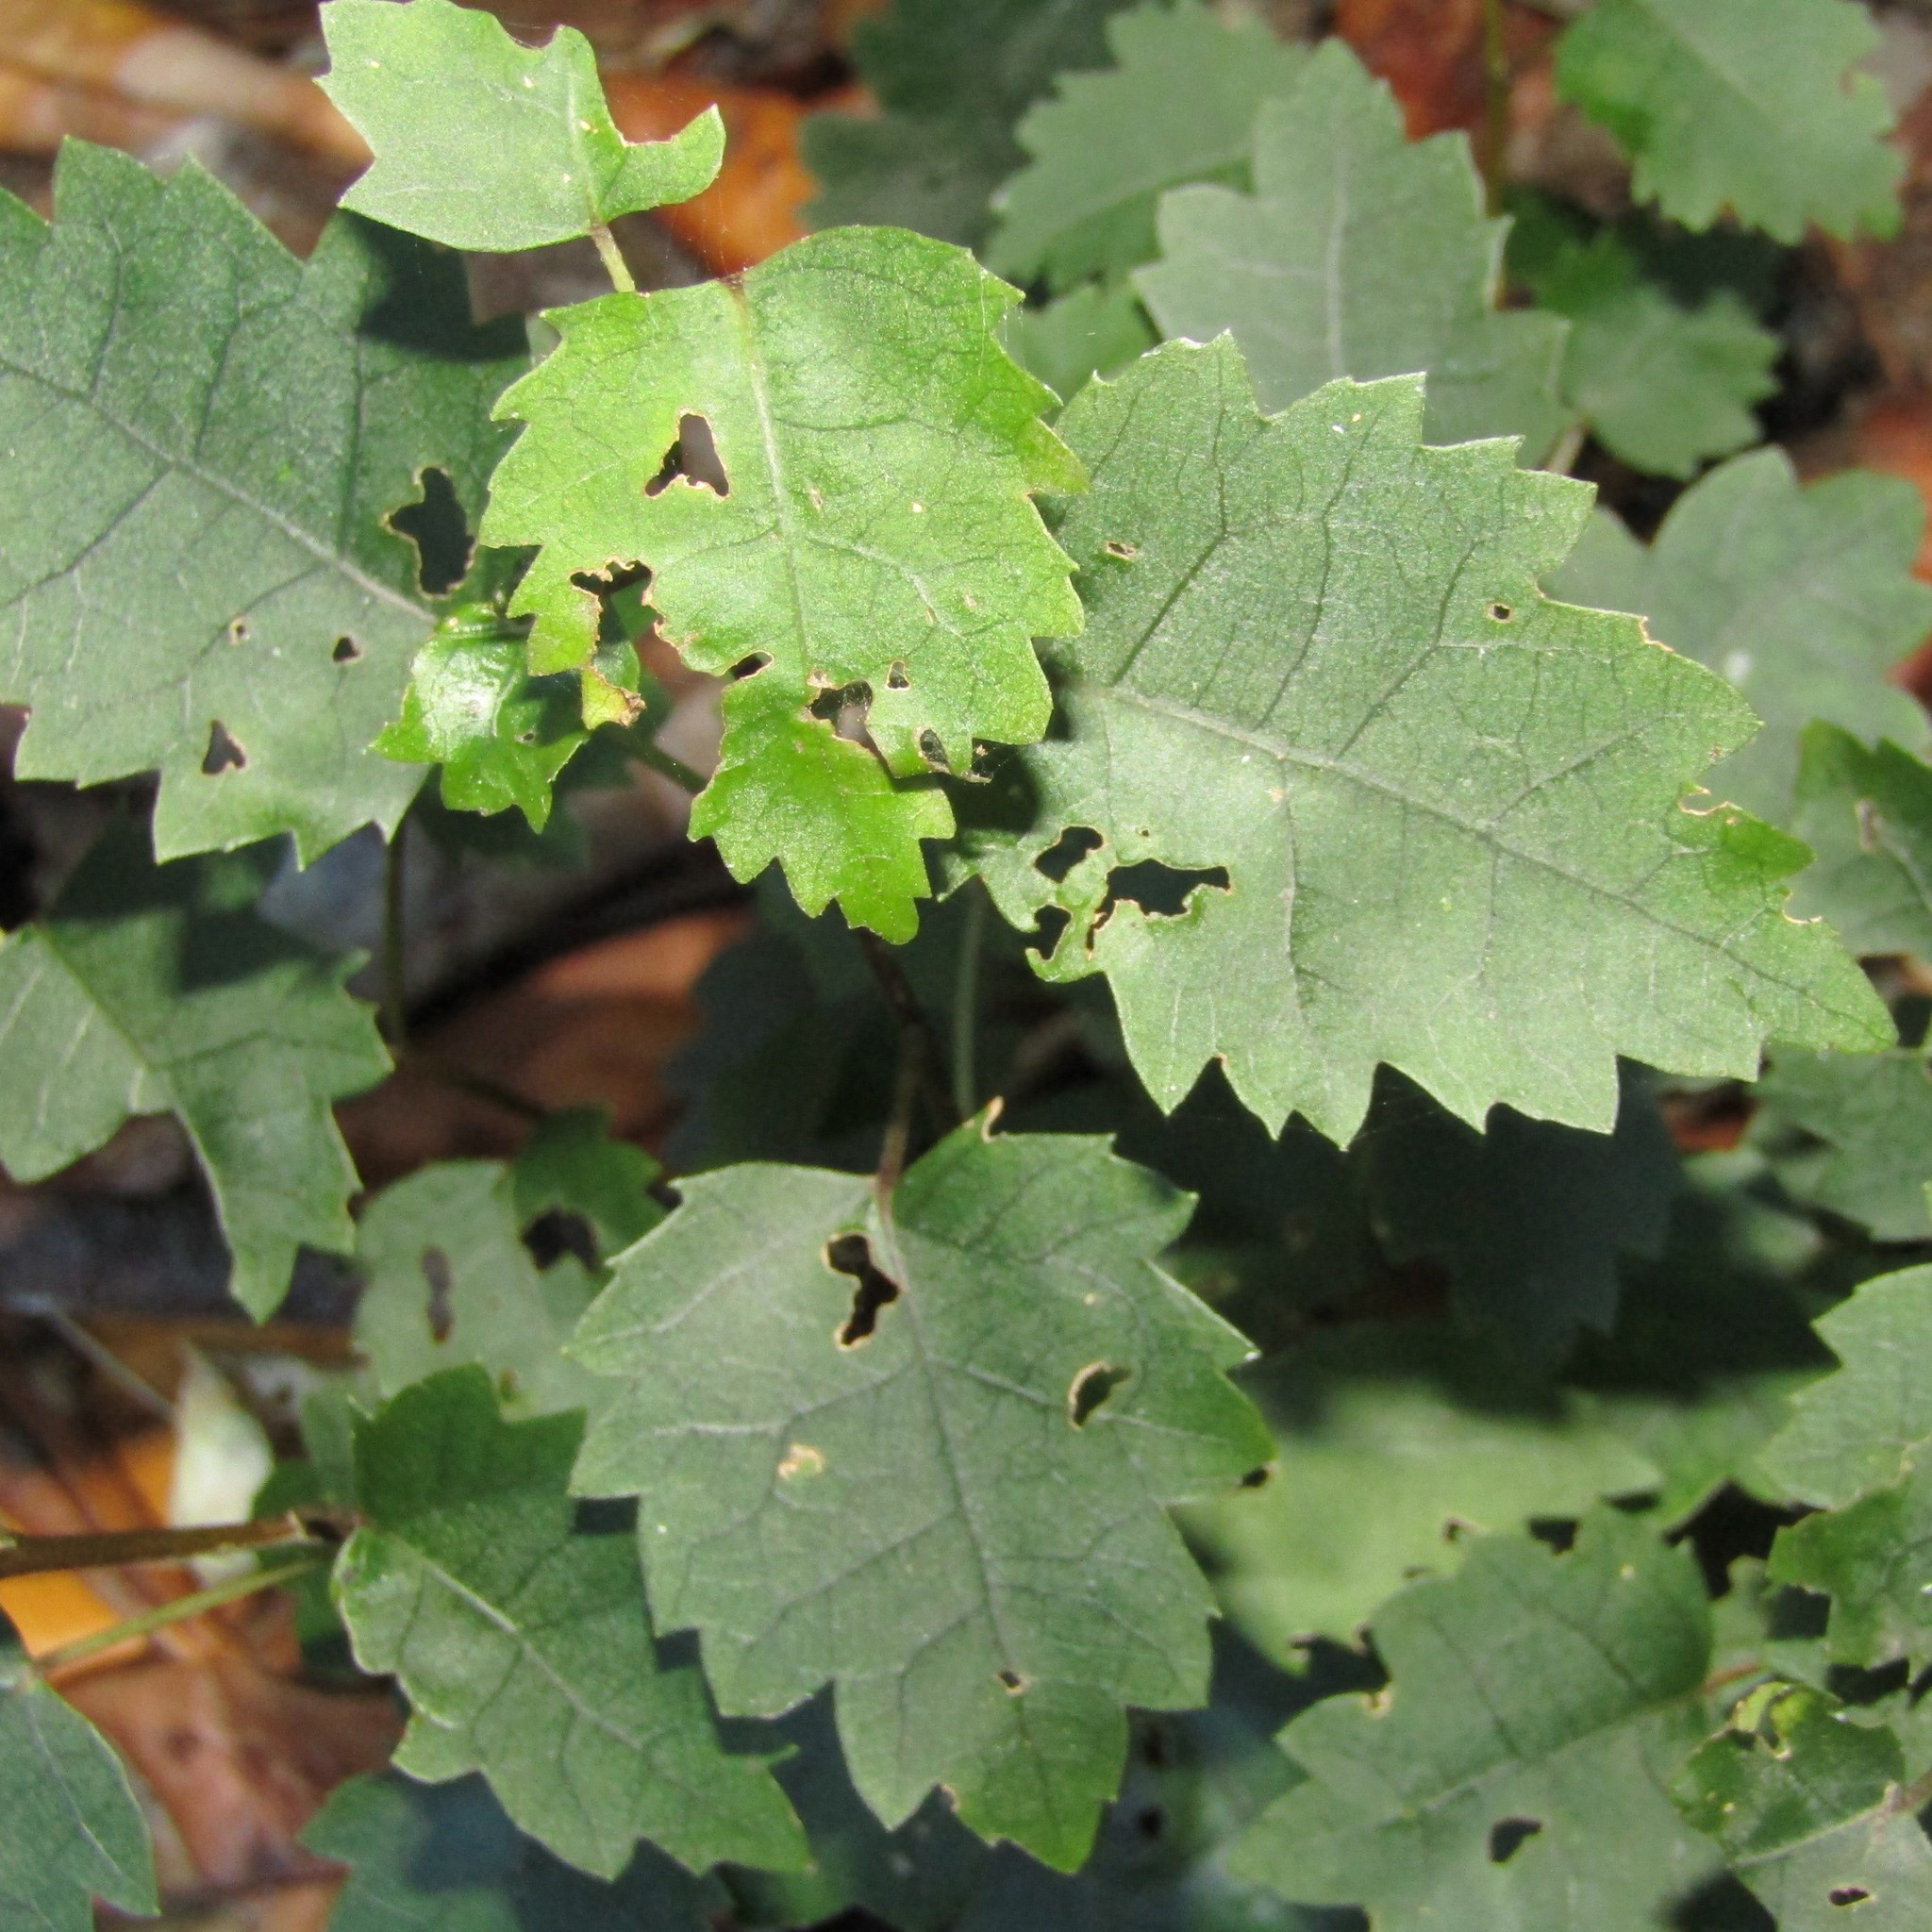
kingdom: Plantae
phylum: Tracheophyta
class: Magnoliopsida
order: Malvales
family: Malvaceae
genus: Hoheria
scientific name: Hoheria populnea
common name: Lacebark
